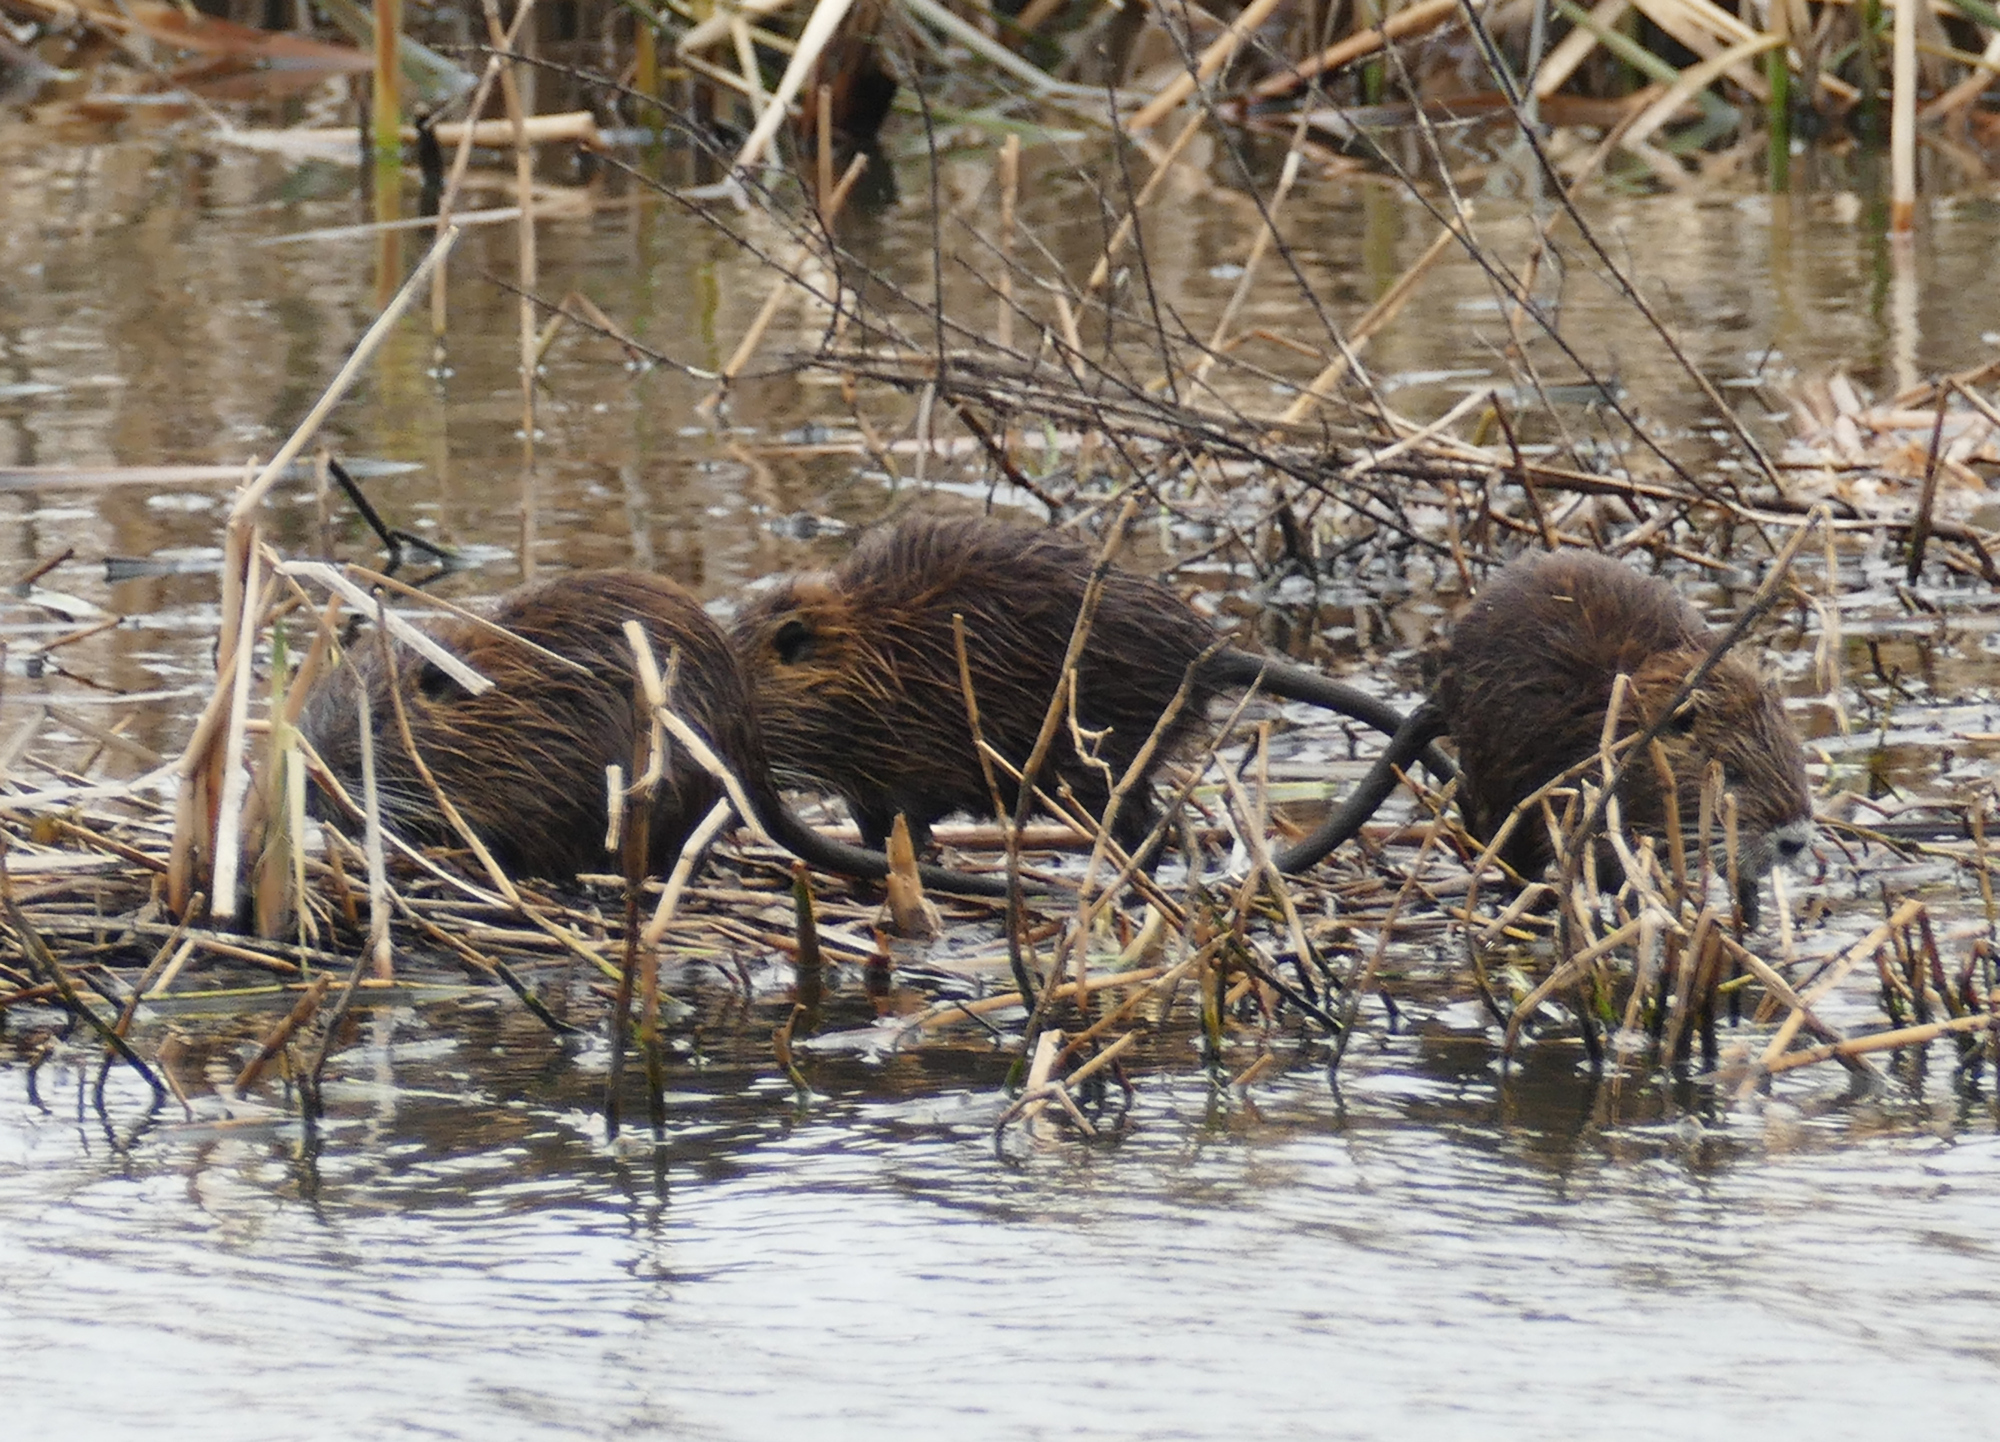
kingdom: Animalia
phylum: Chordata
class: Mammalia
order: Rodentia
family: Myocastoridae
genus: Myocastor
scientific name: Myocastor coypus
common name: Coypu
